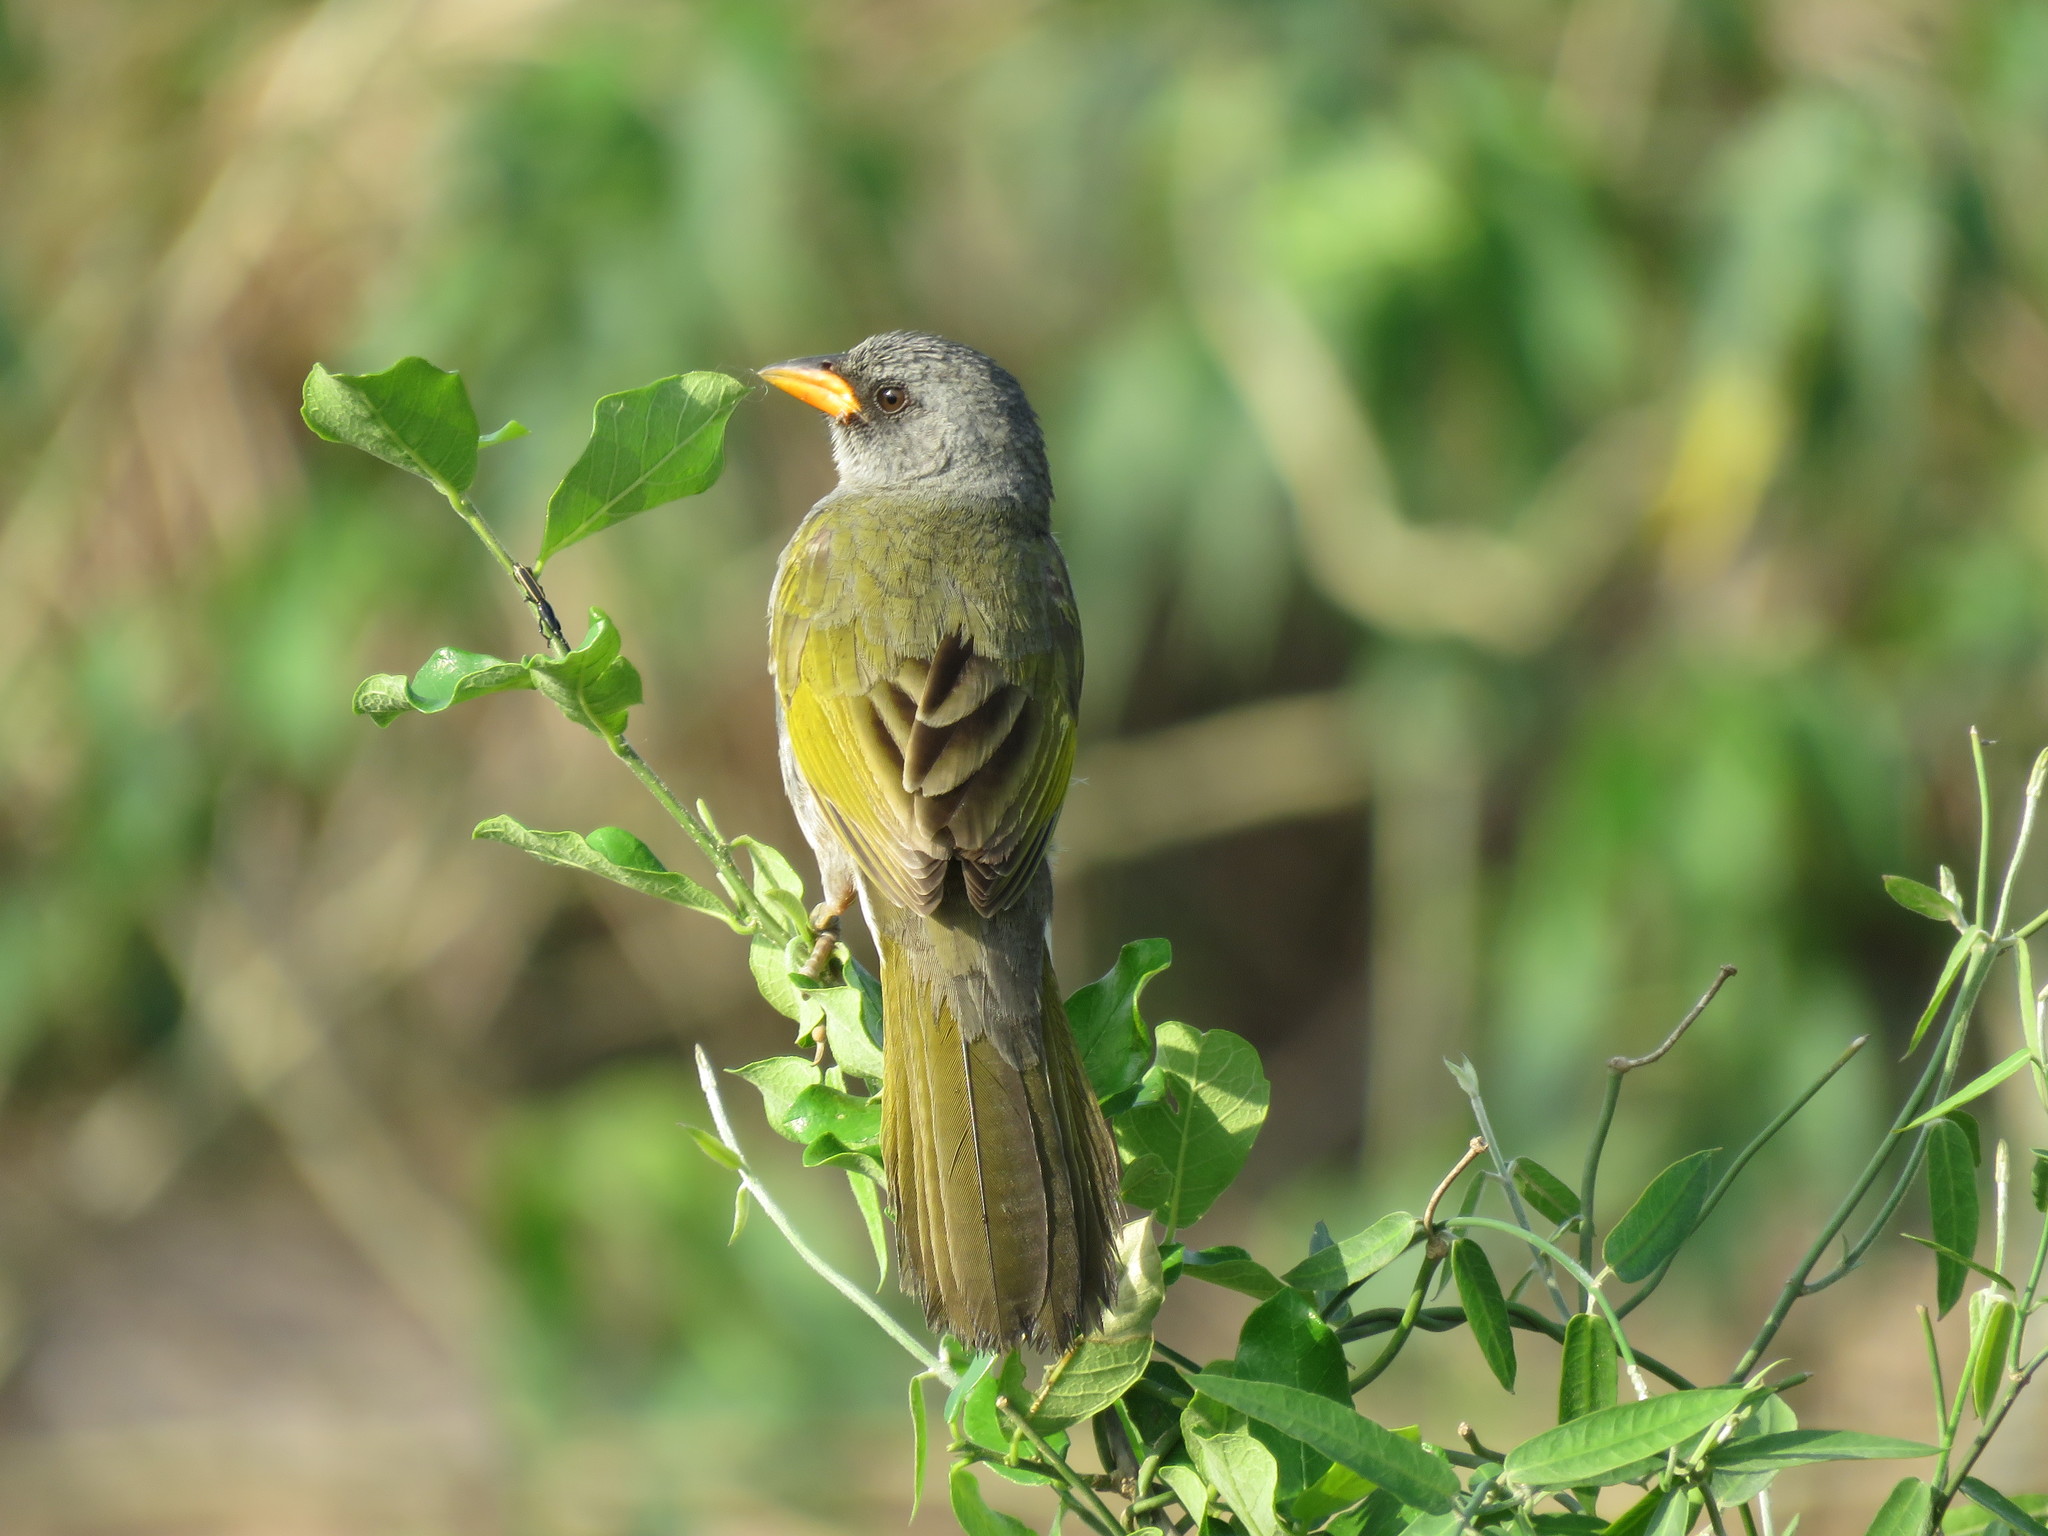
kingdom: Animalia
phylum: Chordata
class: Aves
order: Passeriformes
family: Thraupidae
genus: Embernagra
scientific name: Embernagra platensis
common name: Pampa finch
